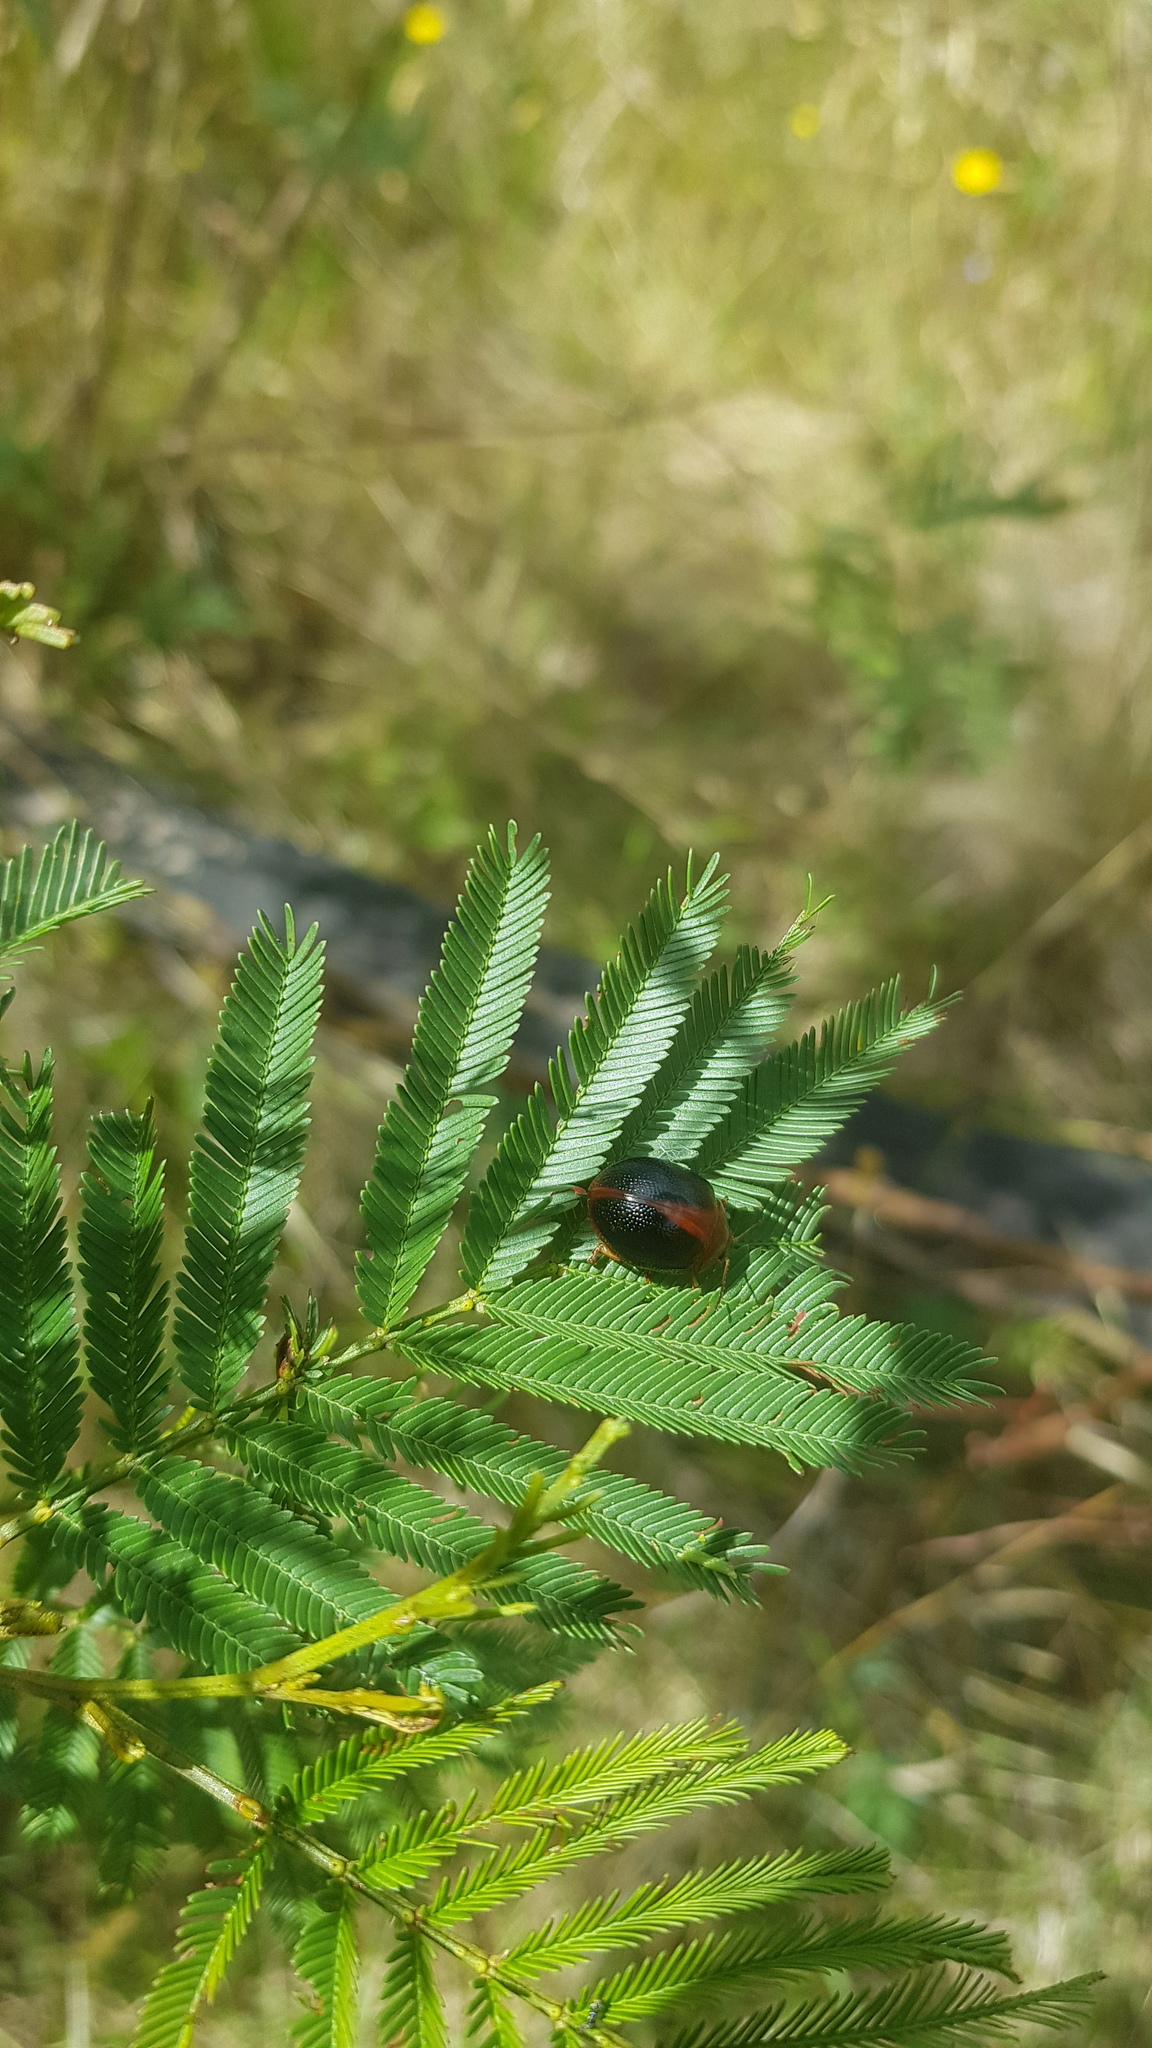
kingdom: Animalia
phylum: Arthropoda
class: Insecta
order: Coleoptera
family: Chrysomelidae
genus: Dicranosterna
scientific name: Dicranosterna
